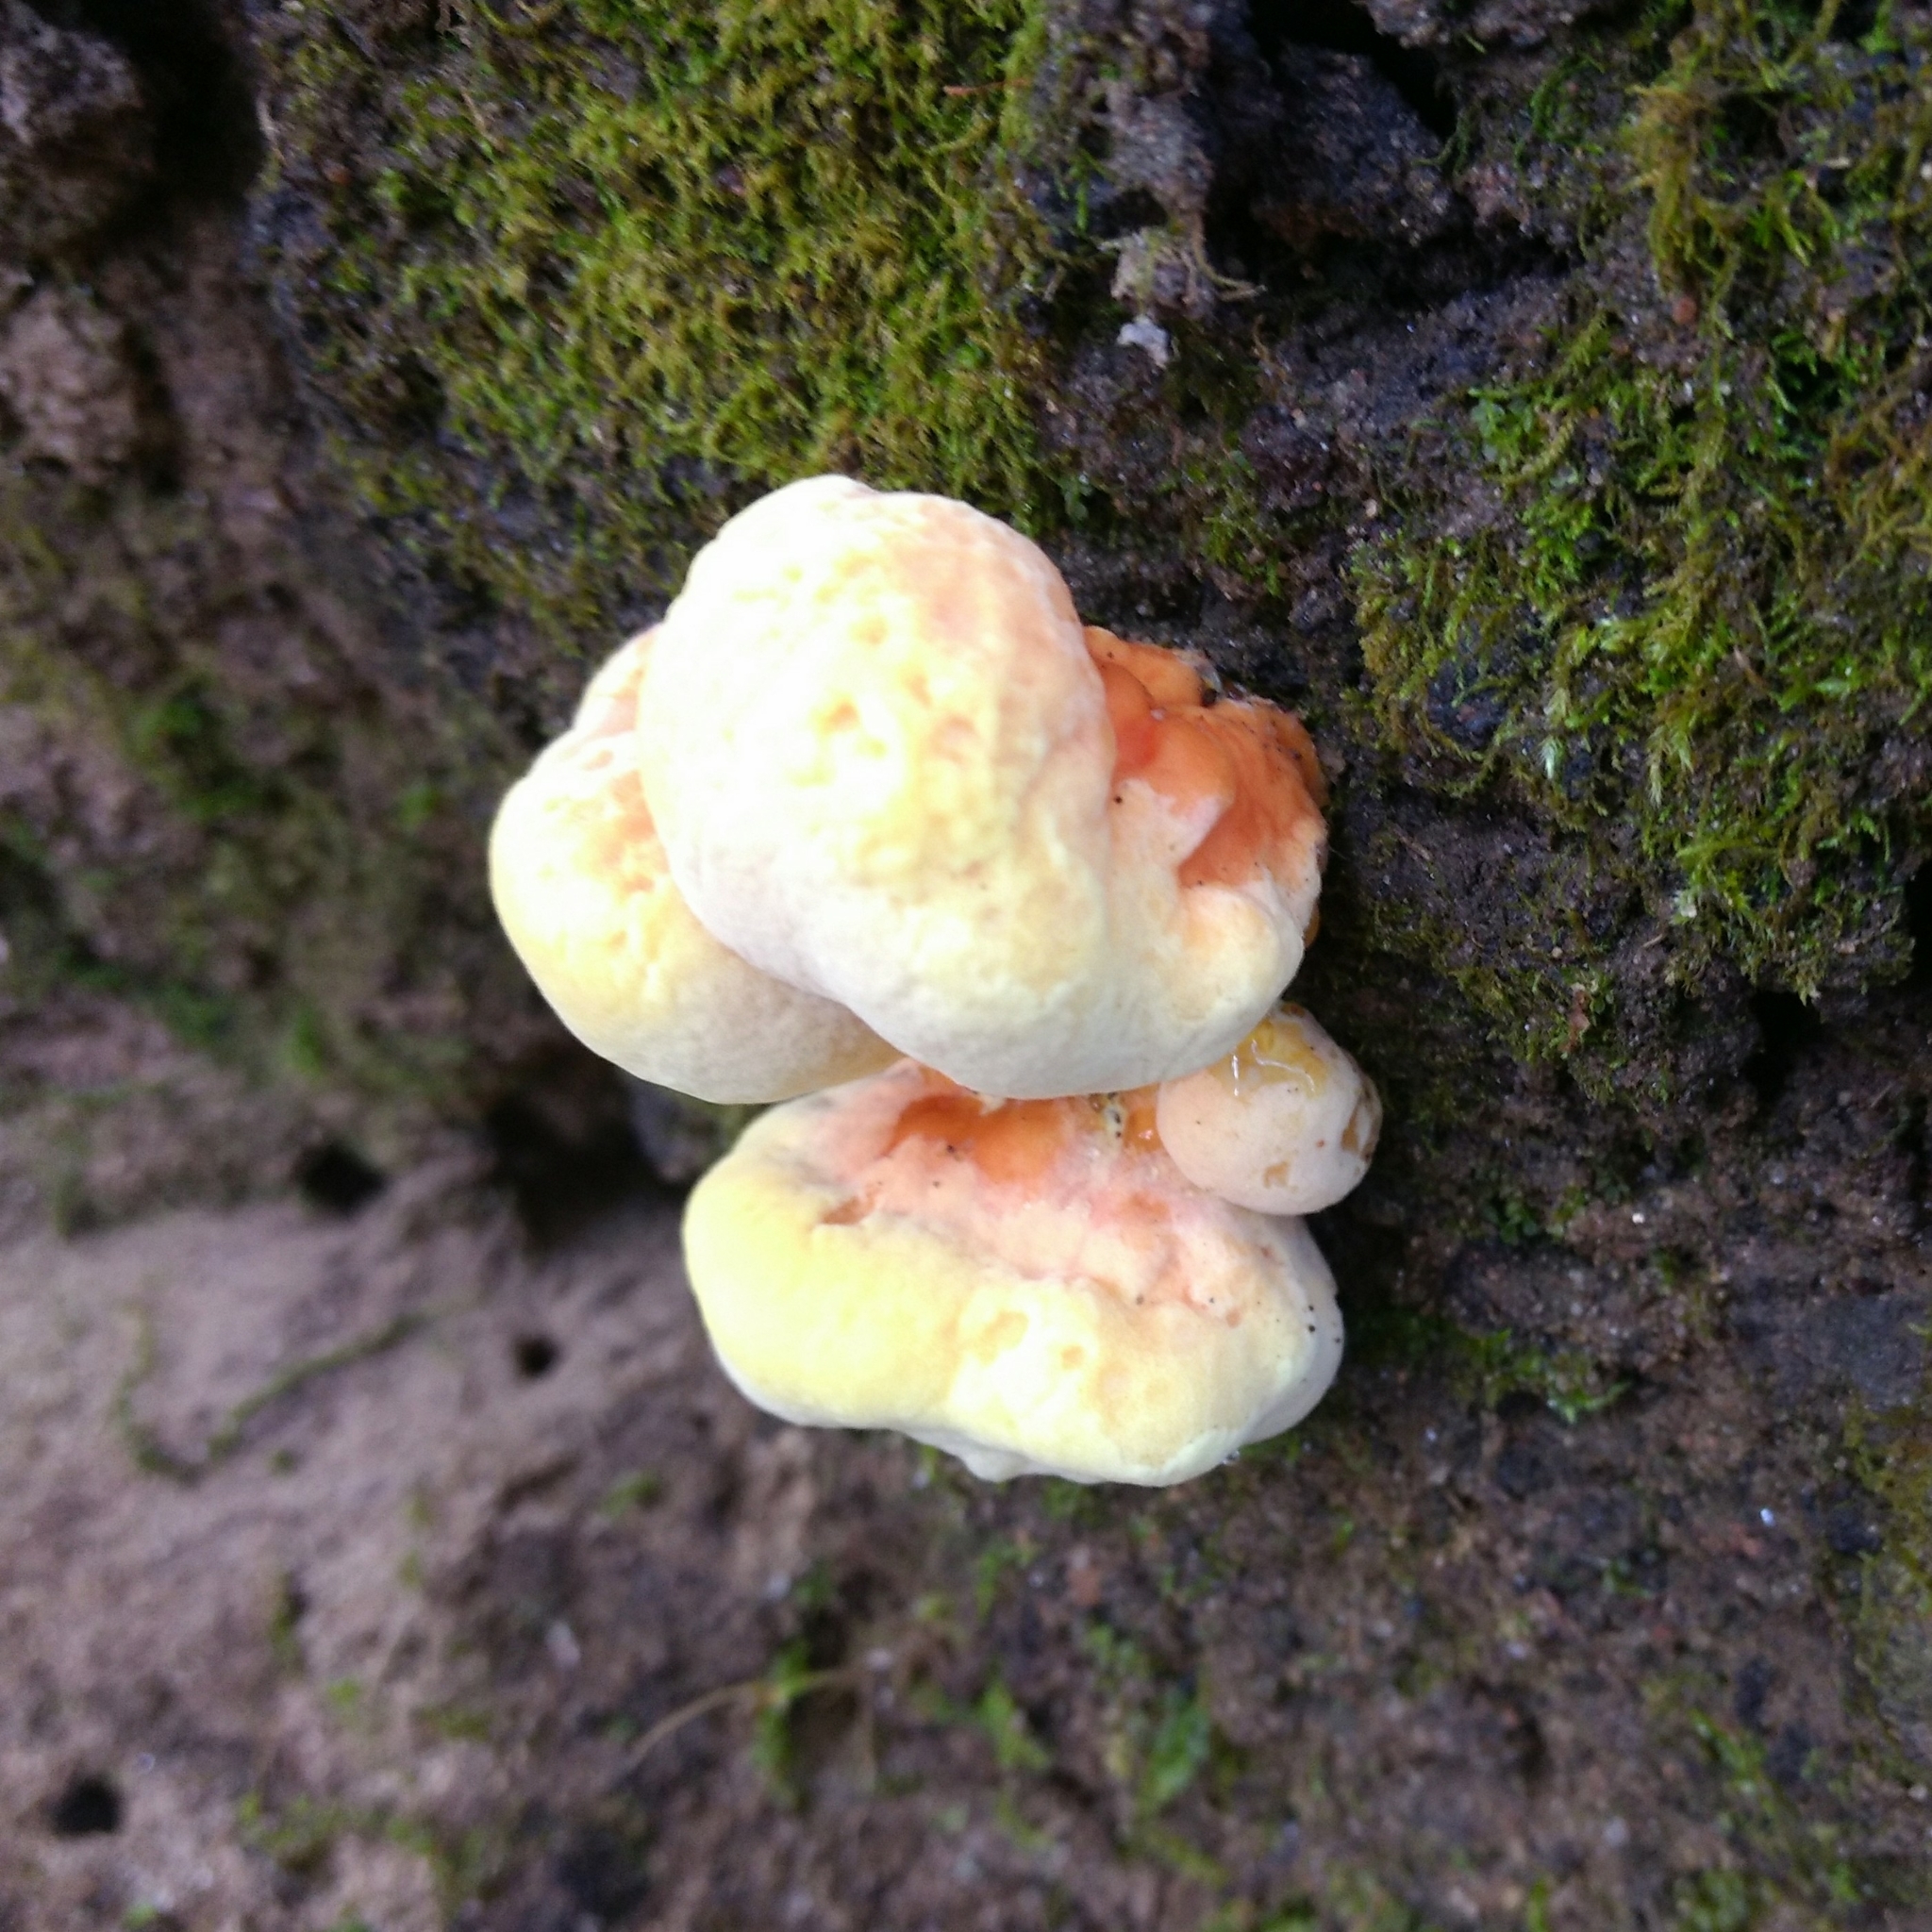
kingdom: Fungi
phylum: Basidiomycota
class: Agaricomycetes
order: Polyporales
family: Laetiporaceae
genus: Laetiporus
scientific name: Laetiporus sulphureus
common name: Chicken of the woods
